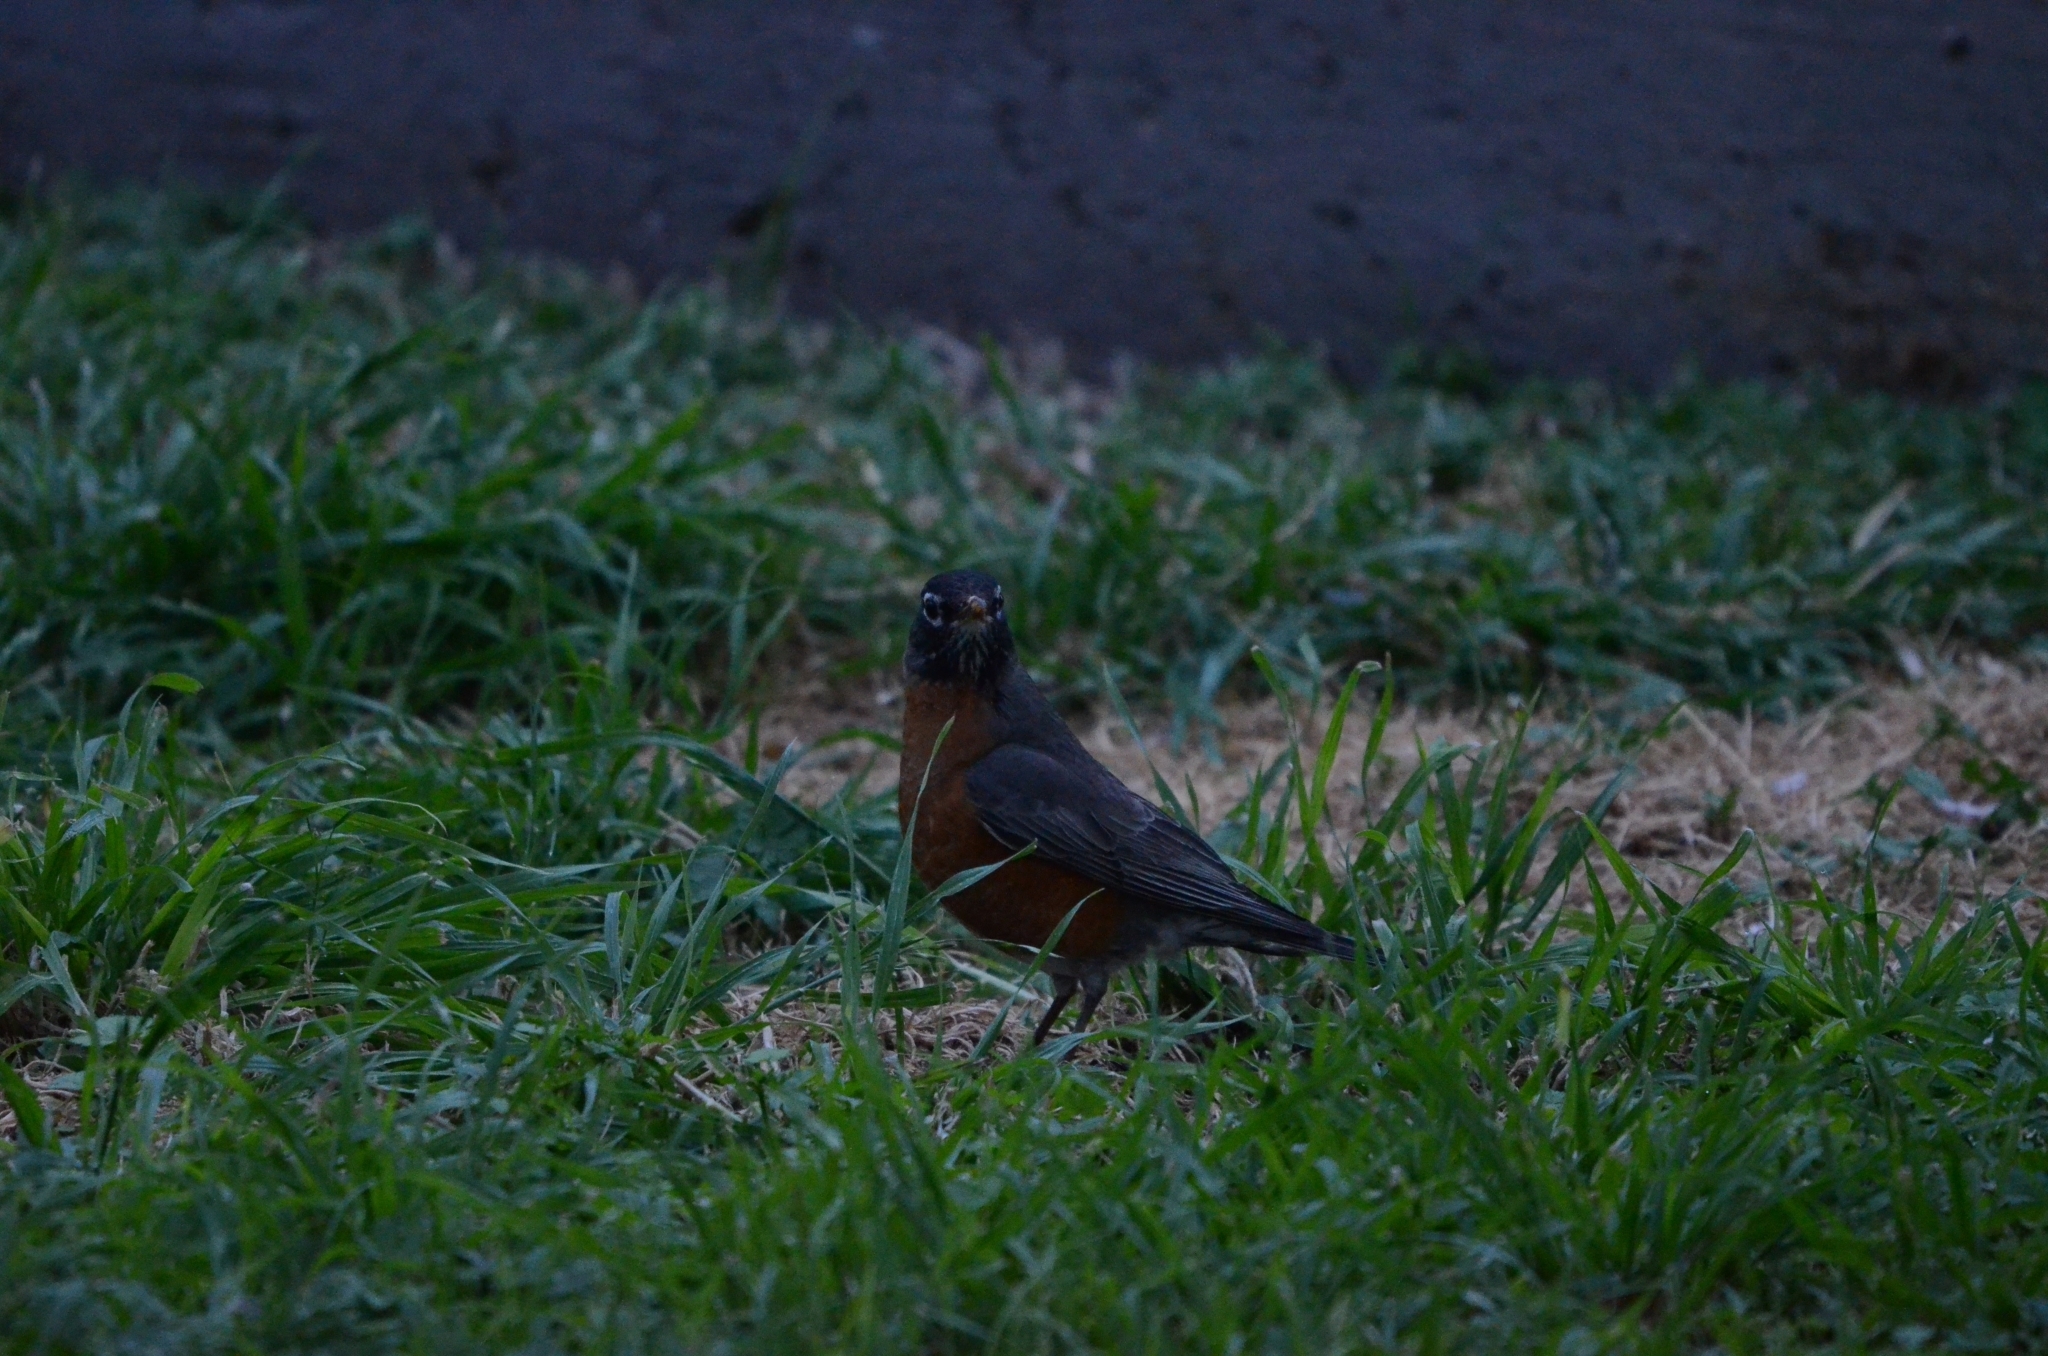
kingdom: Animalia
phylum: Chordata
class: Aves
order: Passeriformes
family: Turdidae
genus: Turdus
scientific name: Turdus migratorius
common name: American robin
